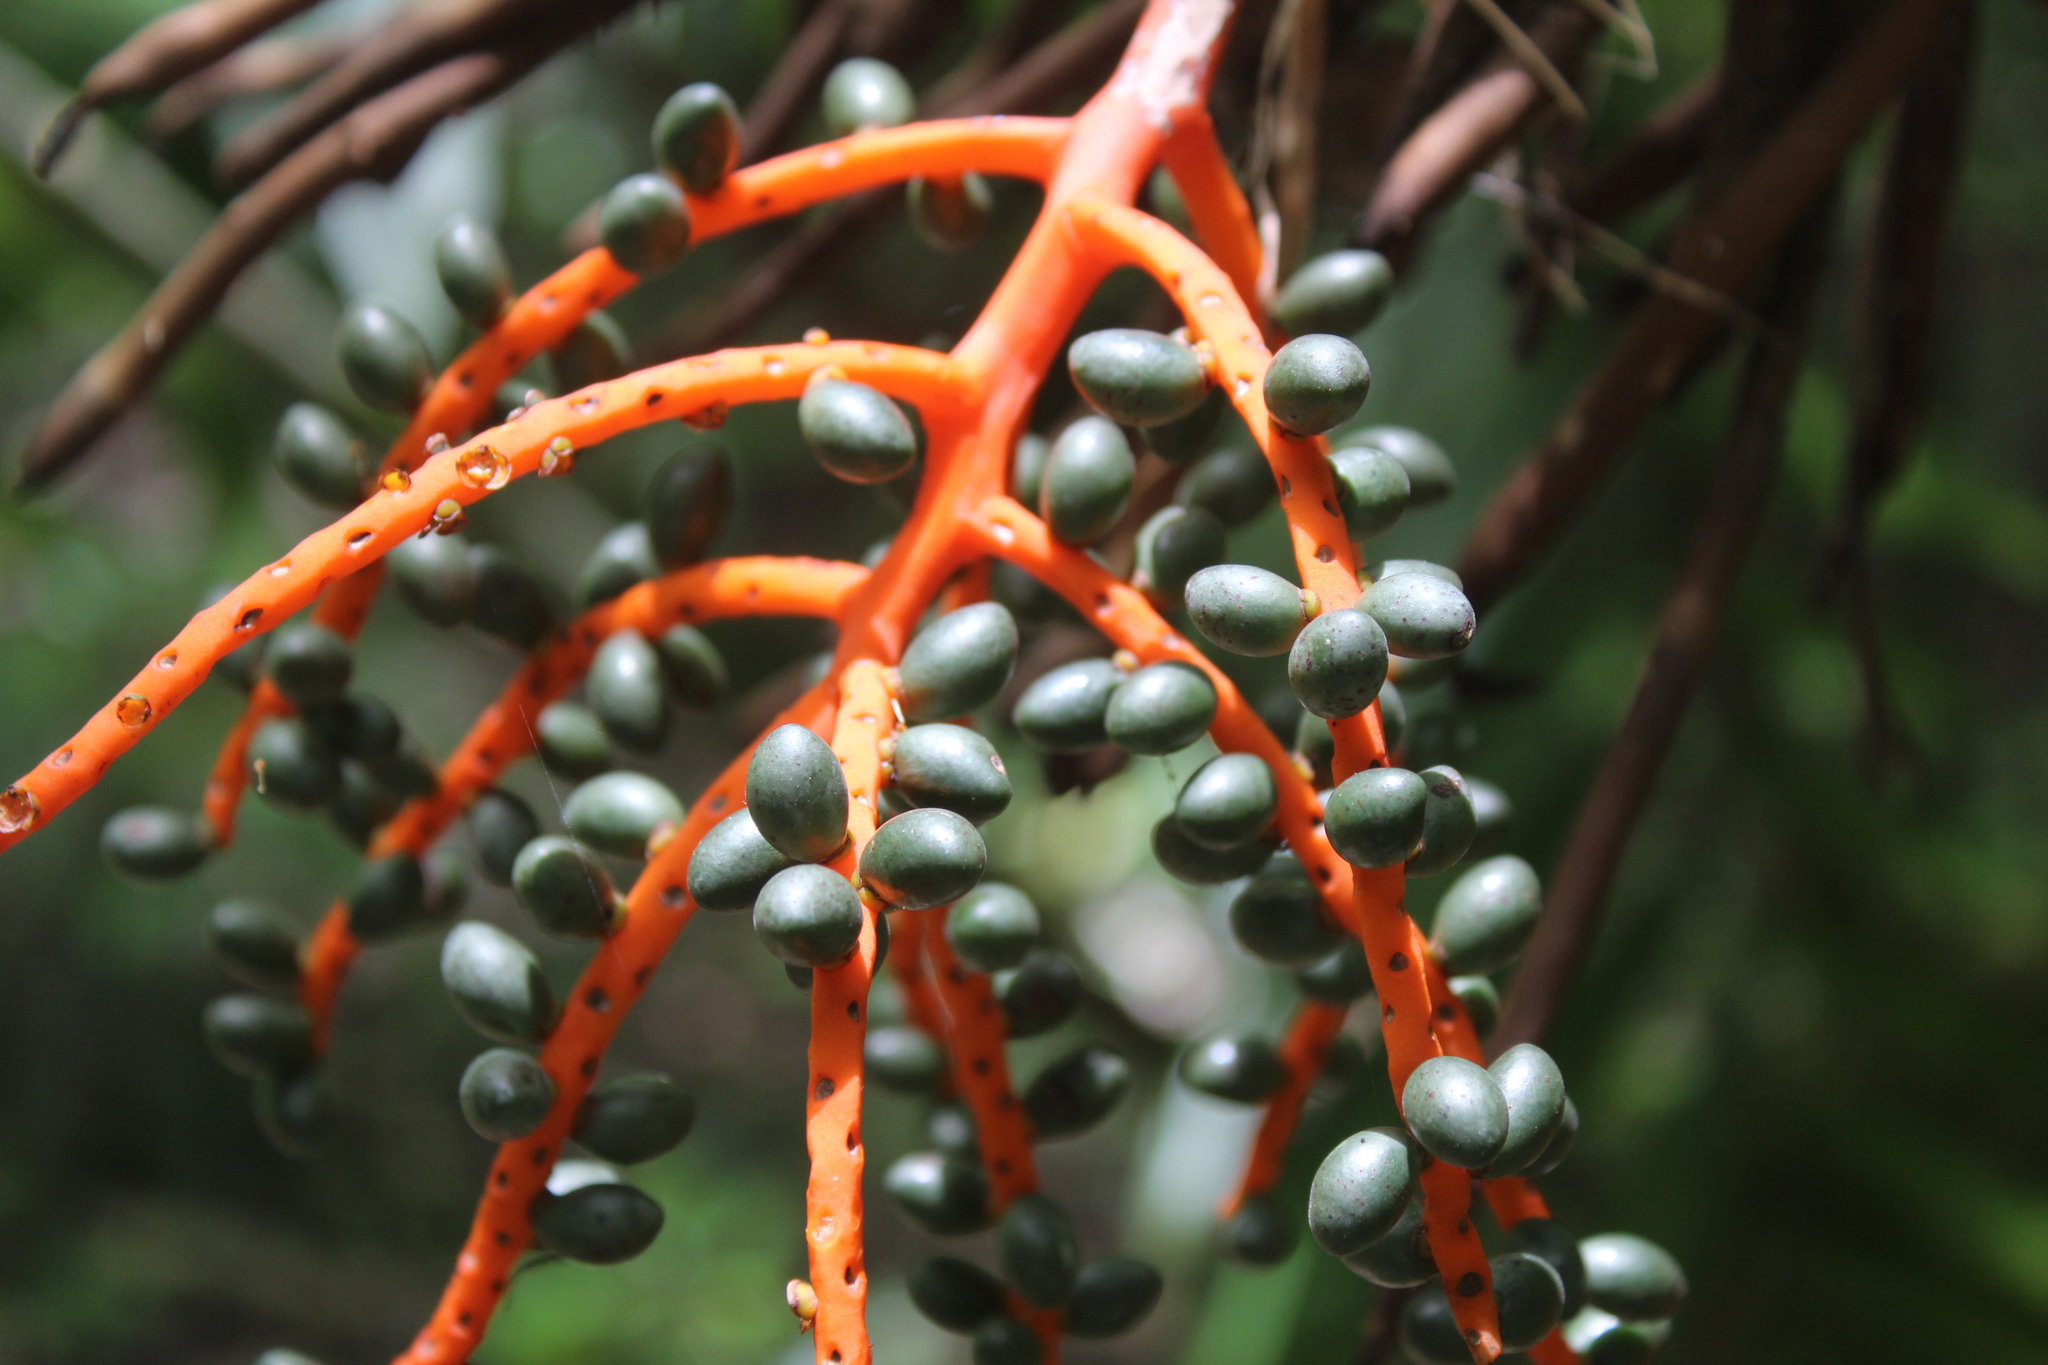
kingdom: Plantae
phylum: Tracheophyta
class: Liliopsida
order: Arecales
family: Arecaceae
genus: Chamaedorea
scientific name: Chamaedorea tepejilote
